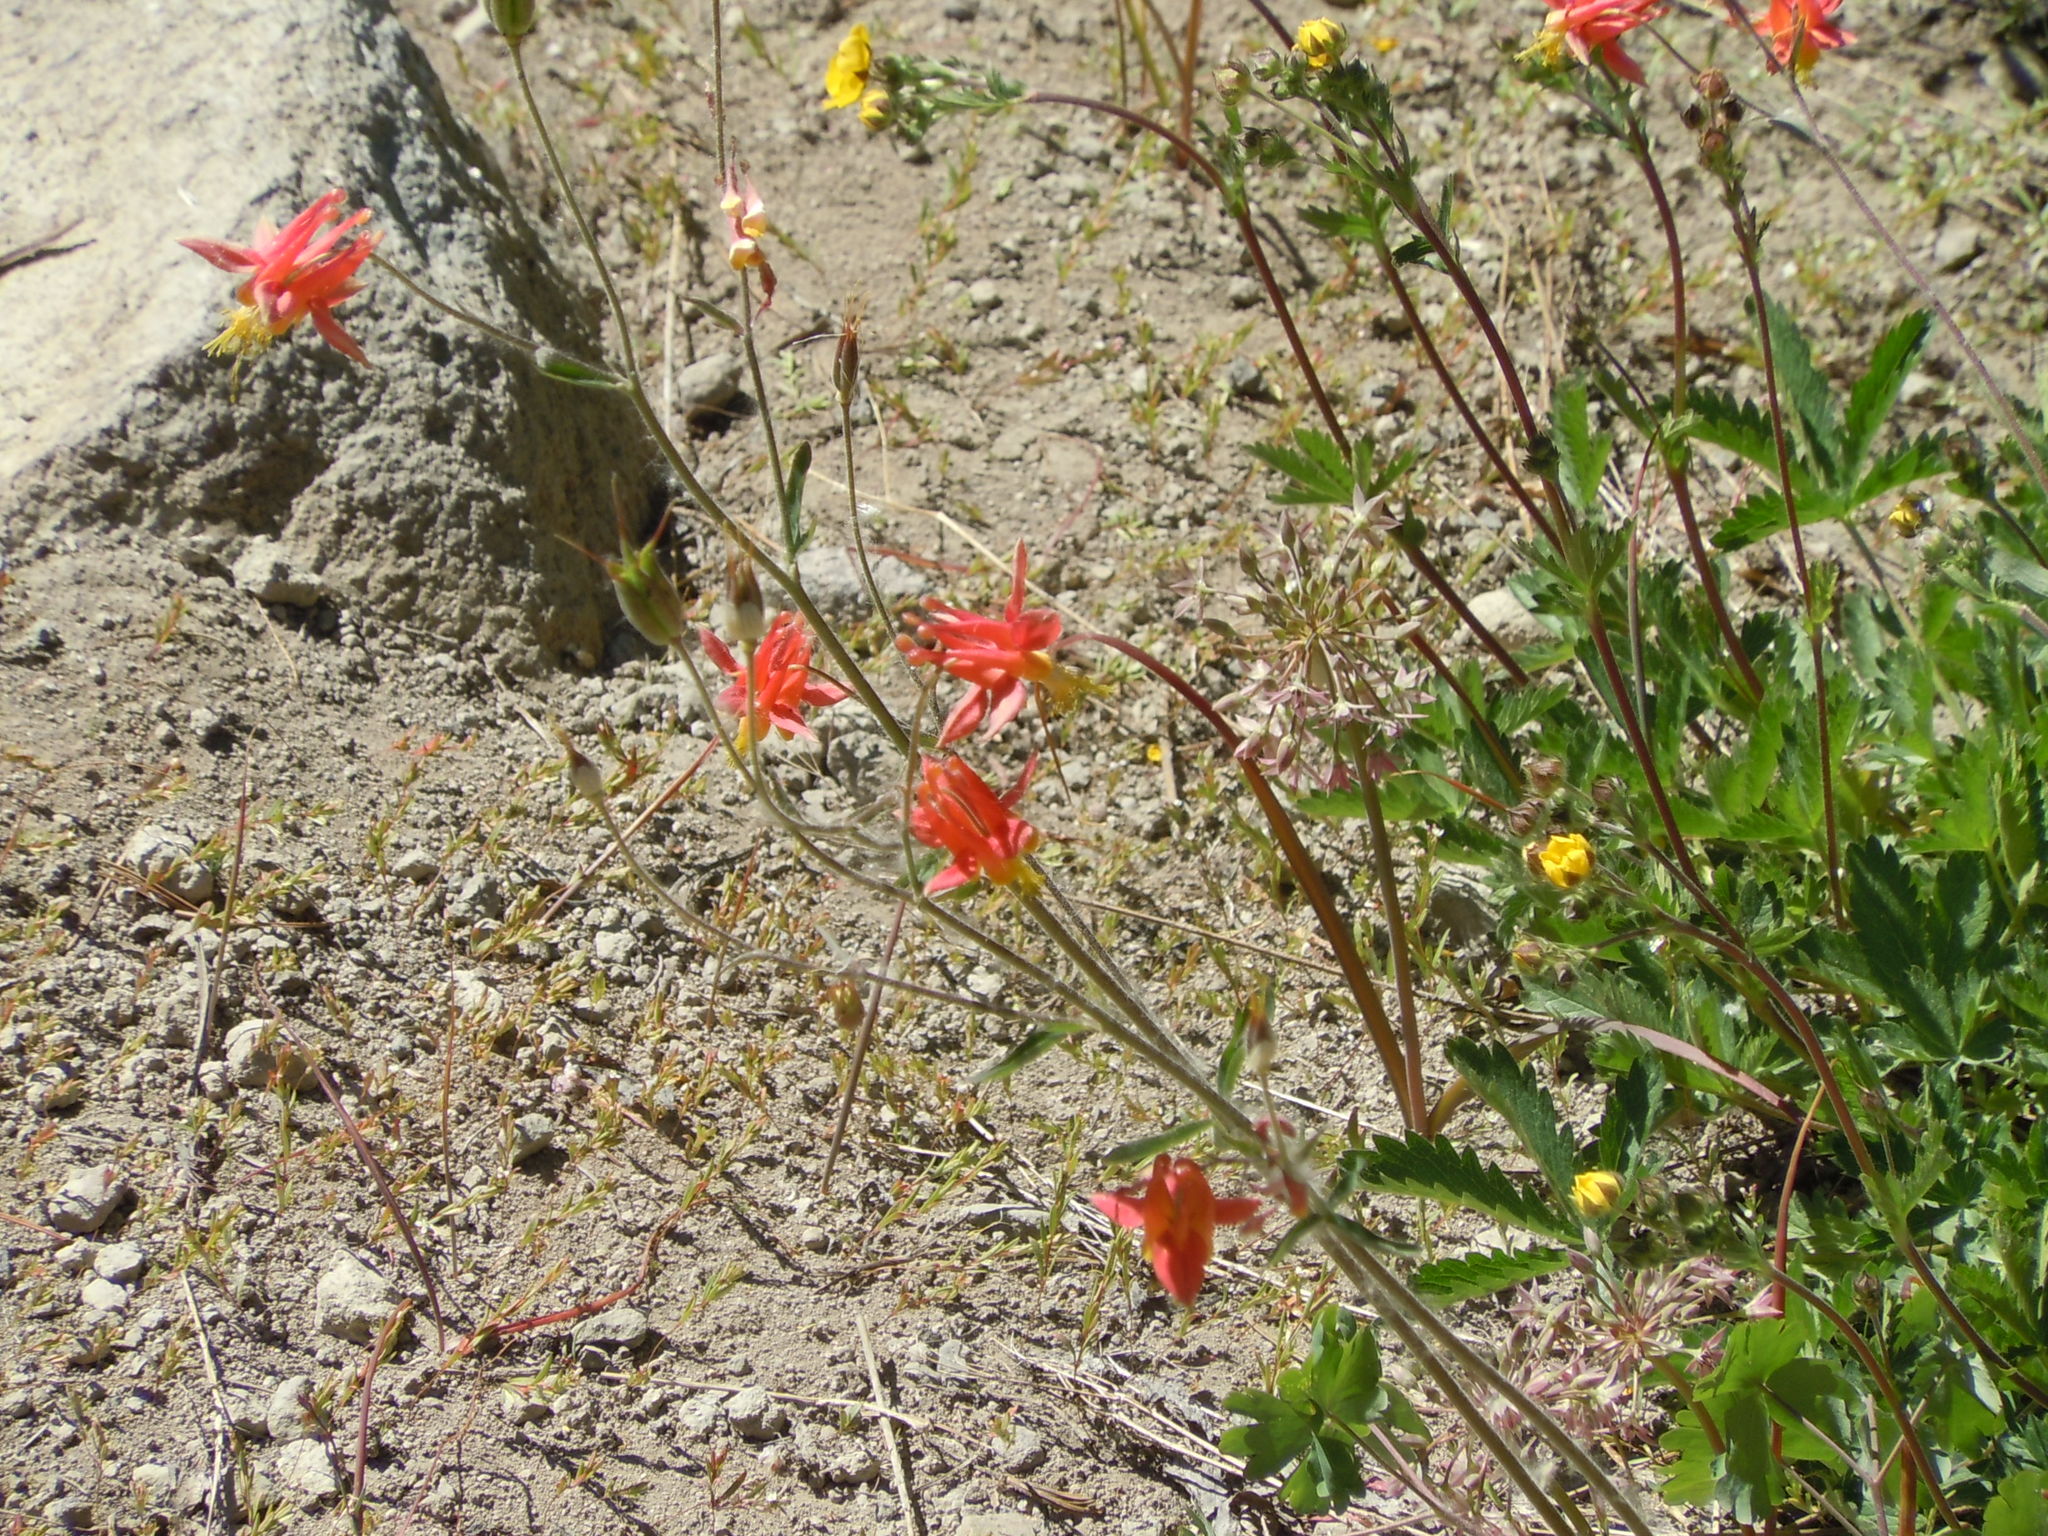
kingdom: Plantae
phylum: Tracheophyta
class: Magnoliopsida
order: Ranunculales
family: Ranunculaceae
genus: Aquilegia
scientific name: Aquilegia formosa
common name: Sitka columbine
